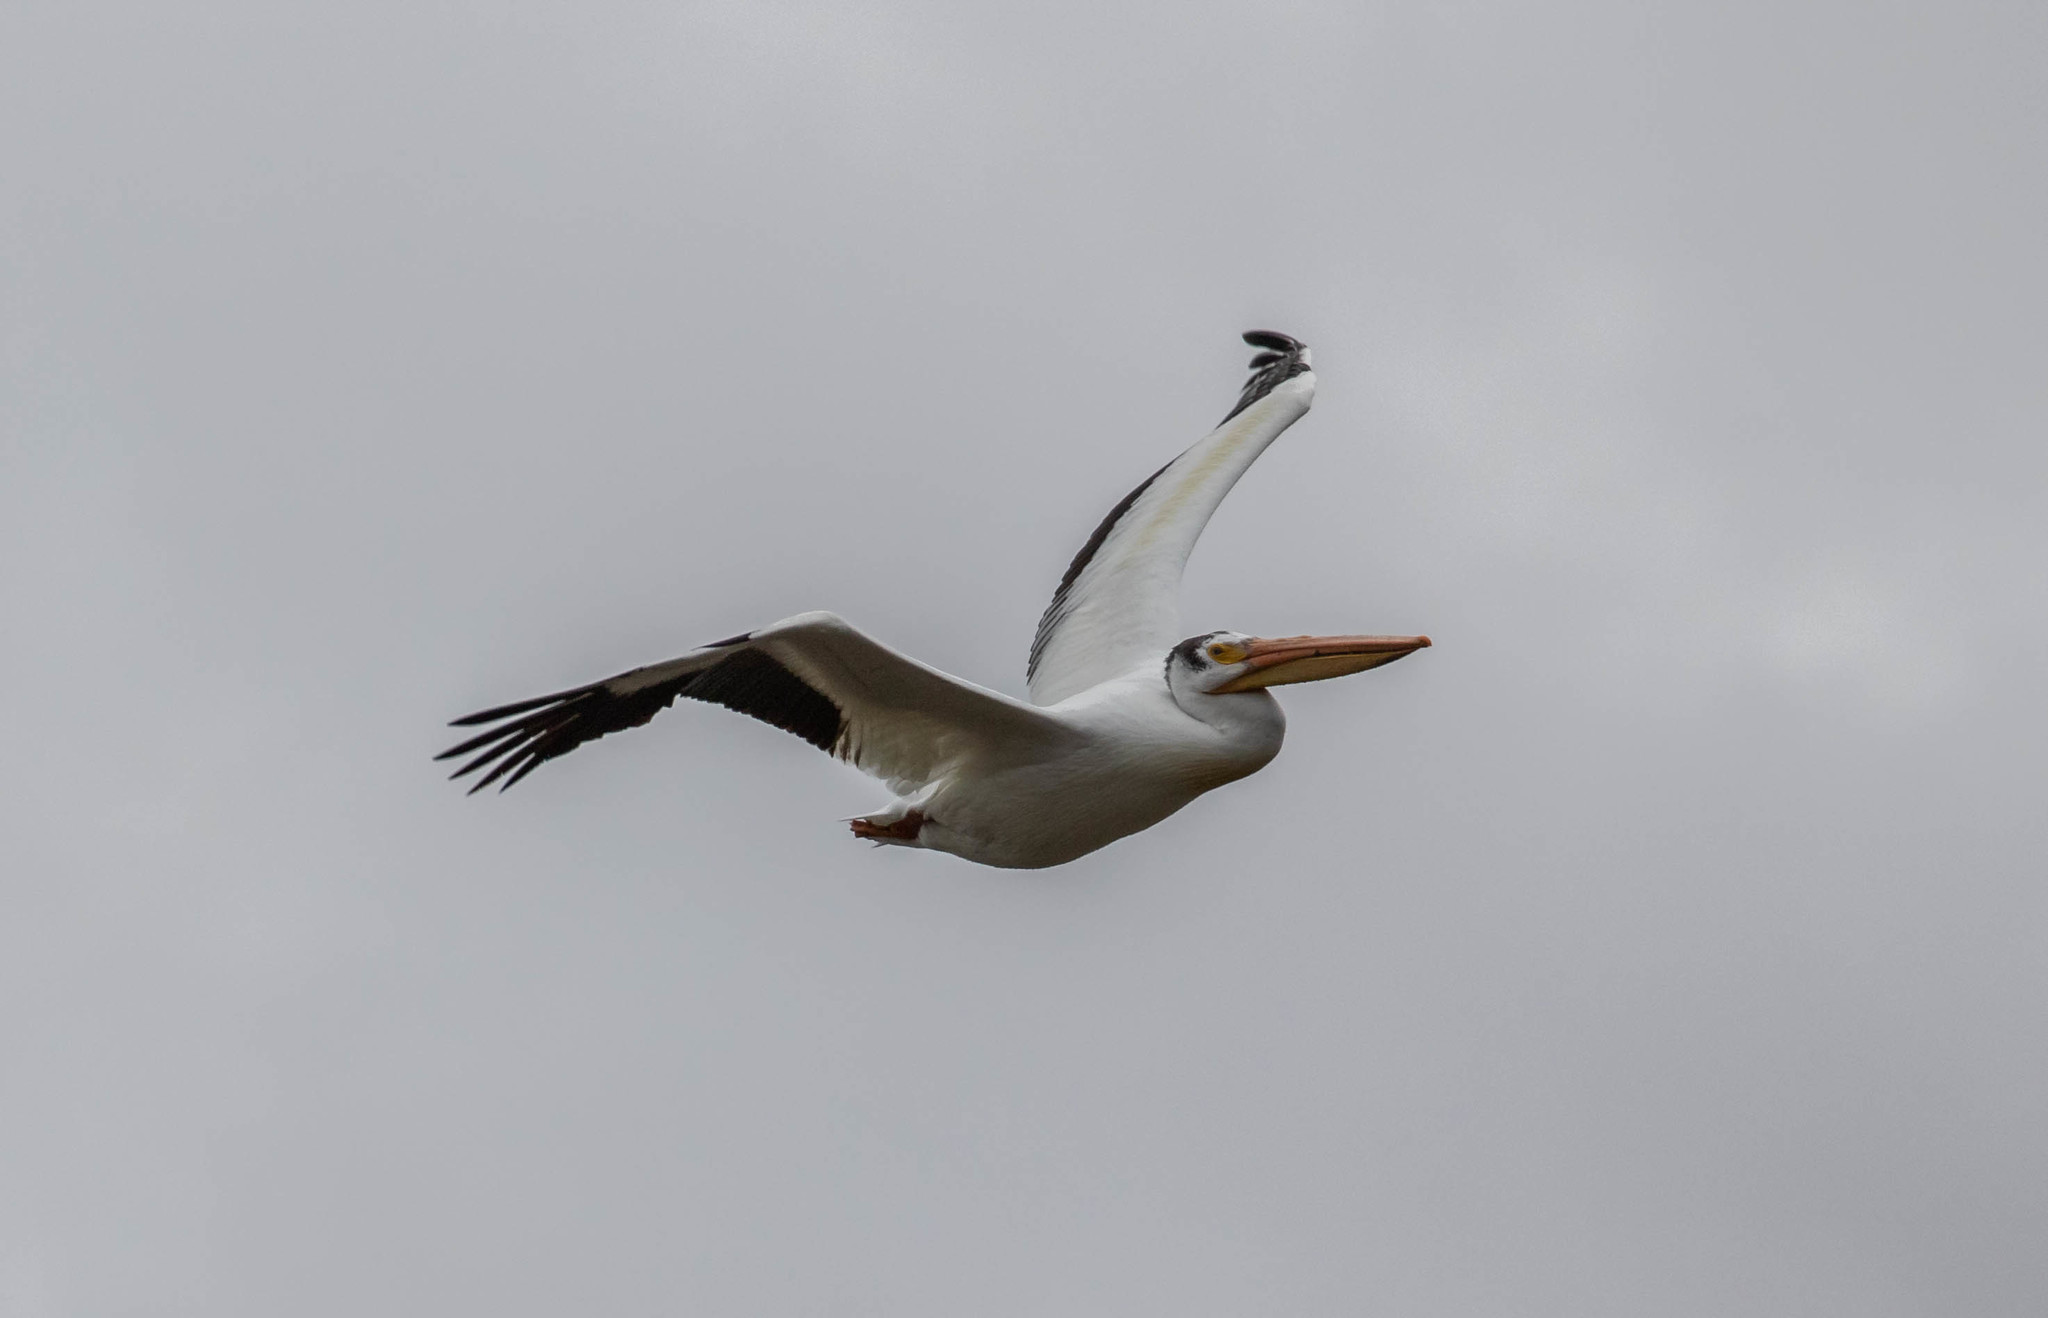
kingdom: Animalia
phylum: Chordata
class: Aves
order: Pelecaniformes
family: Pelecanidae
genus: Pelecanus
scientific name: Pelecanus erythrorhynchos
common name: American white pelican
